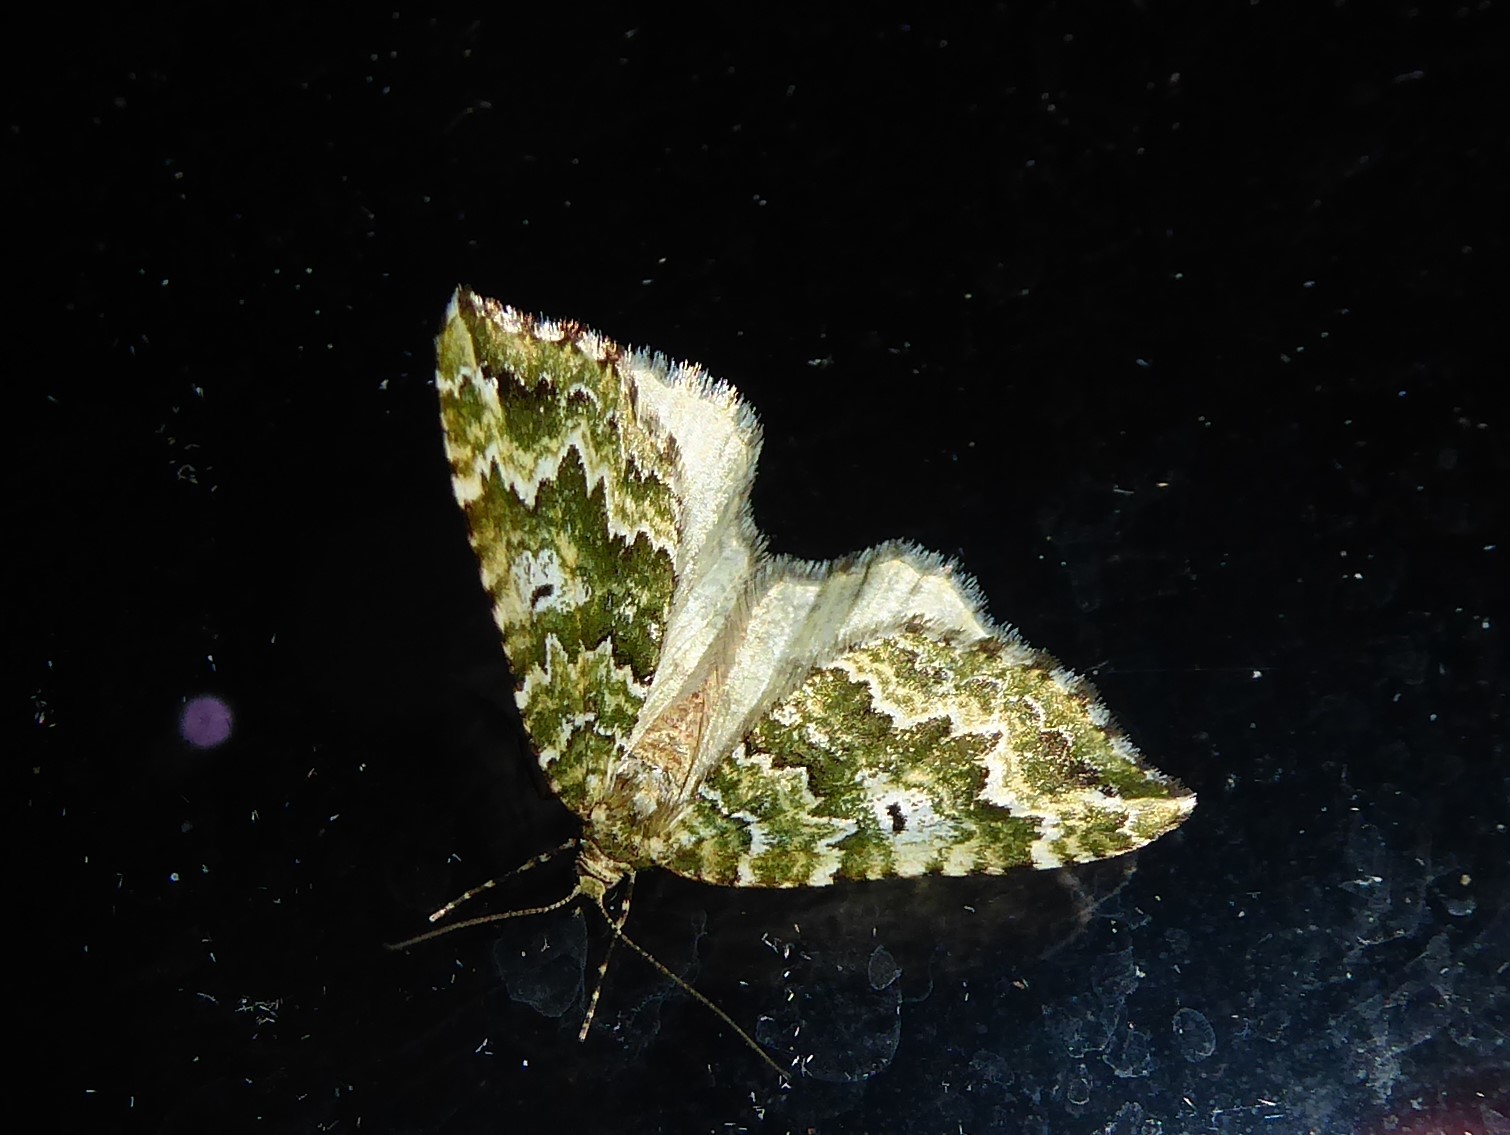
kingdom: Animalia
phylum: Arthropoda
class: Insecta
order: Lepidoptera
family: Geometridae
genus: Asaphodes
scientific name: Asaphodes beata
